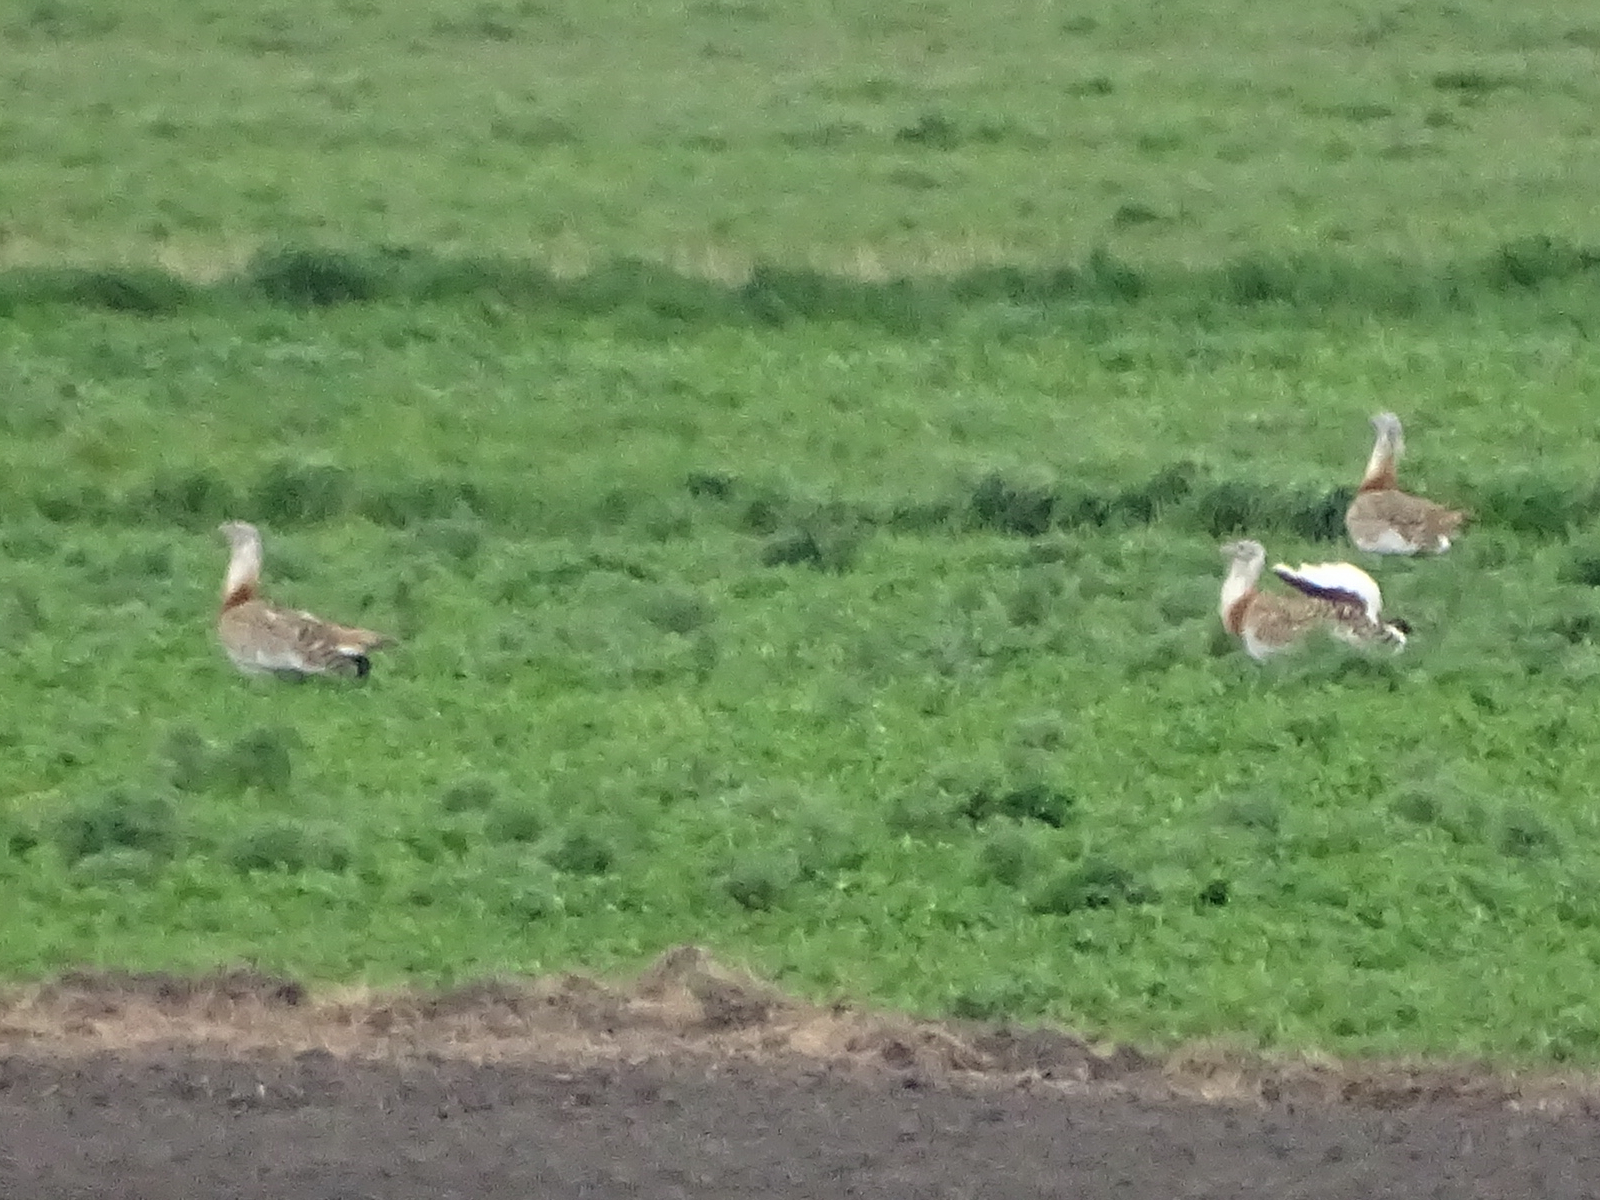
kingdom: Animalia
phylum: Chordata
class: Aves
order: Otidiformes
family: Otididae
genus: Otis
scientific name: Otis tarda
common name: Great bustard
